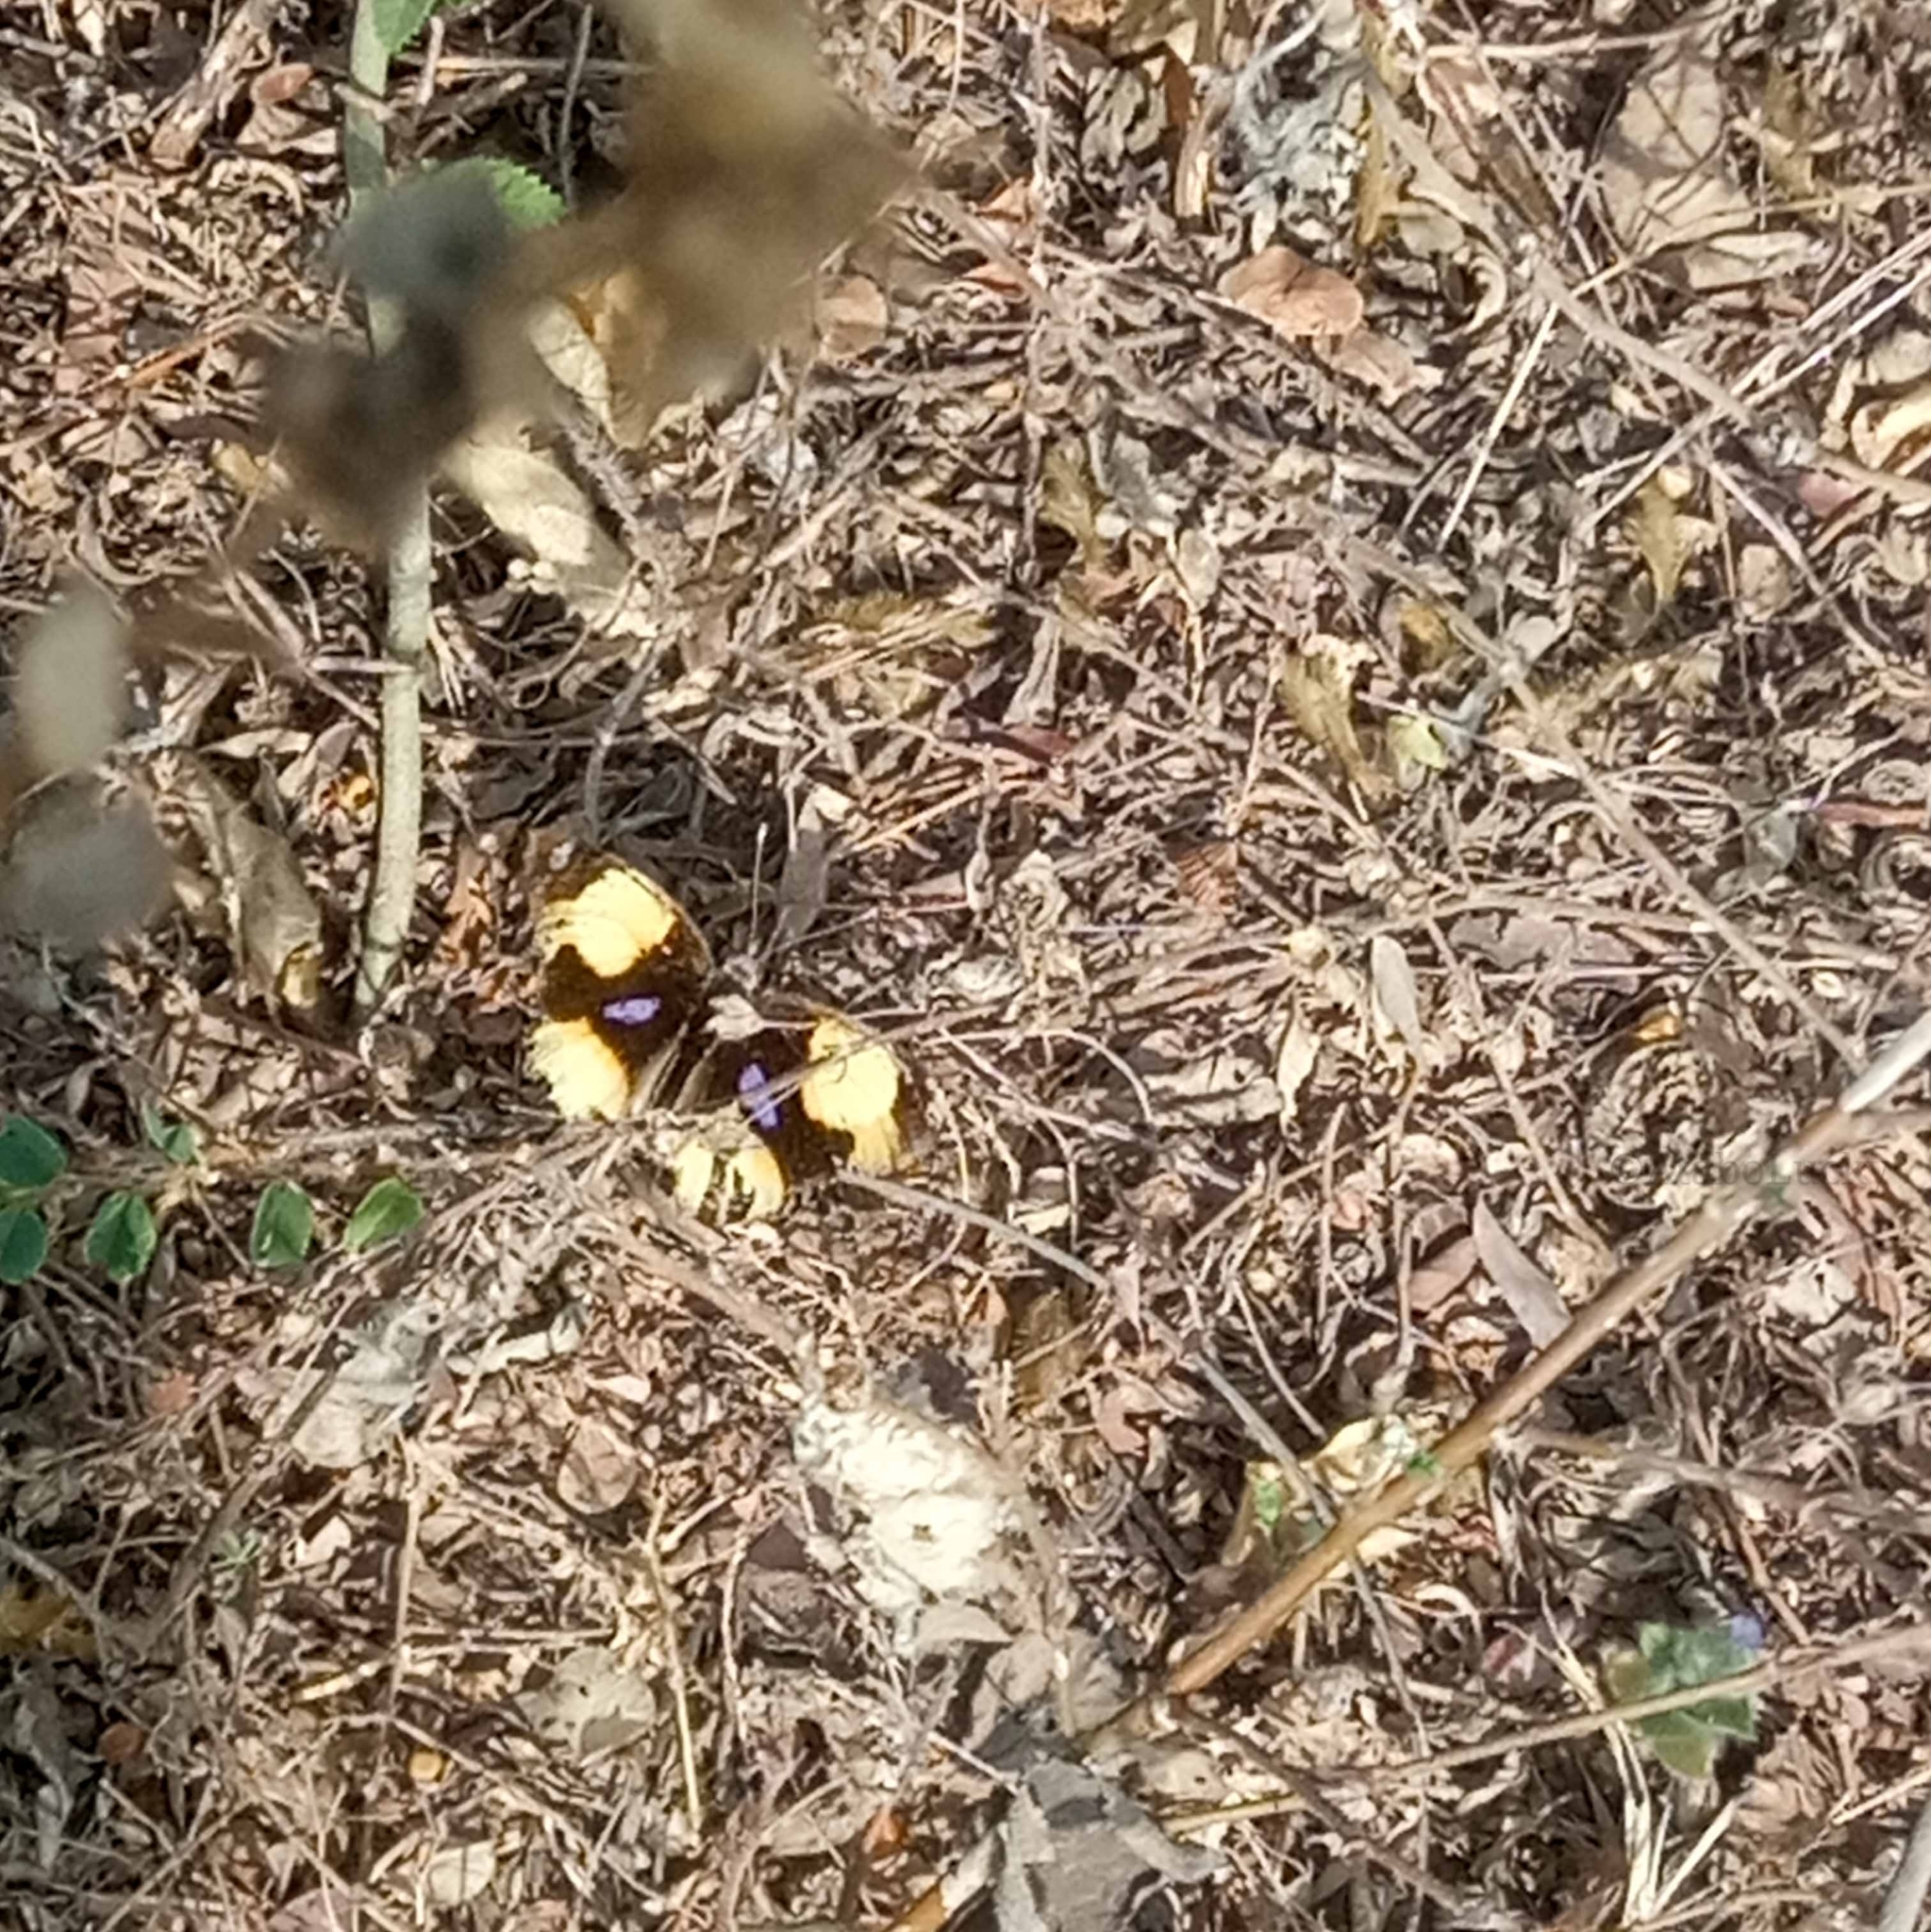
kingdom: Animalia
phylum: Arthropoda
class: Insecta
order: Lepidoptera
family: Nymphalidae
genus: Junonia
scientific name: Junonia hierta
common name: Yellow pansy
